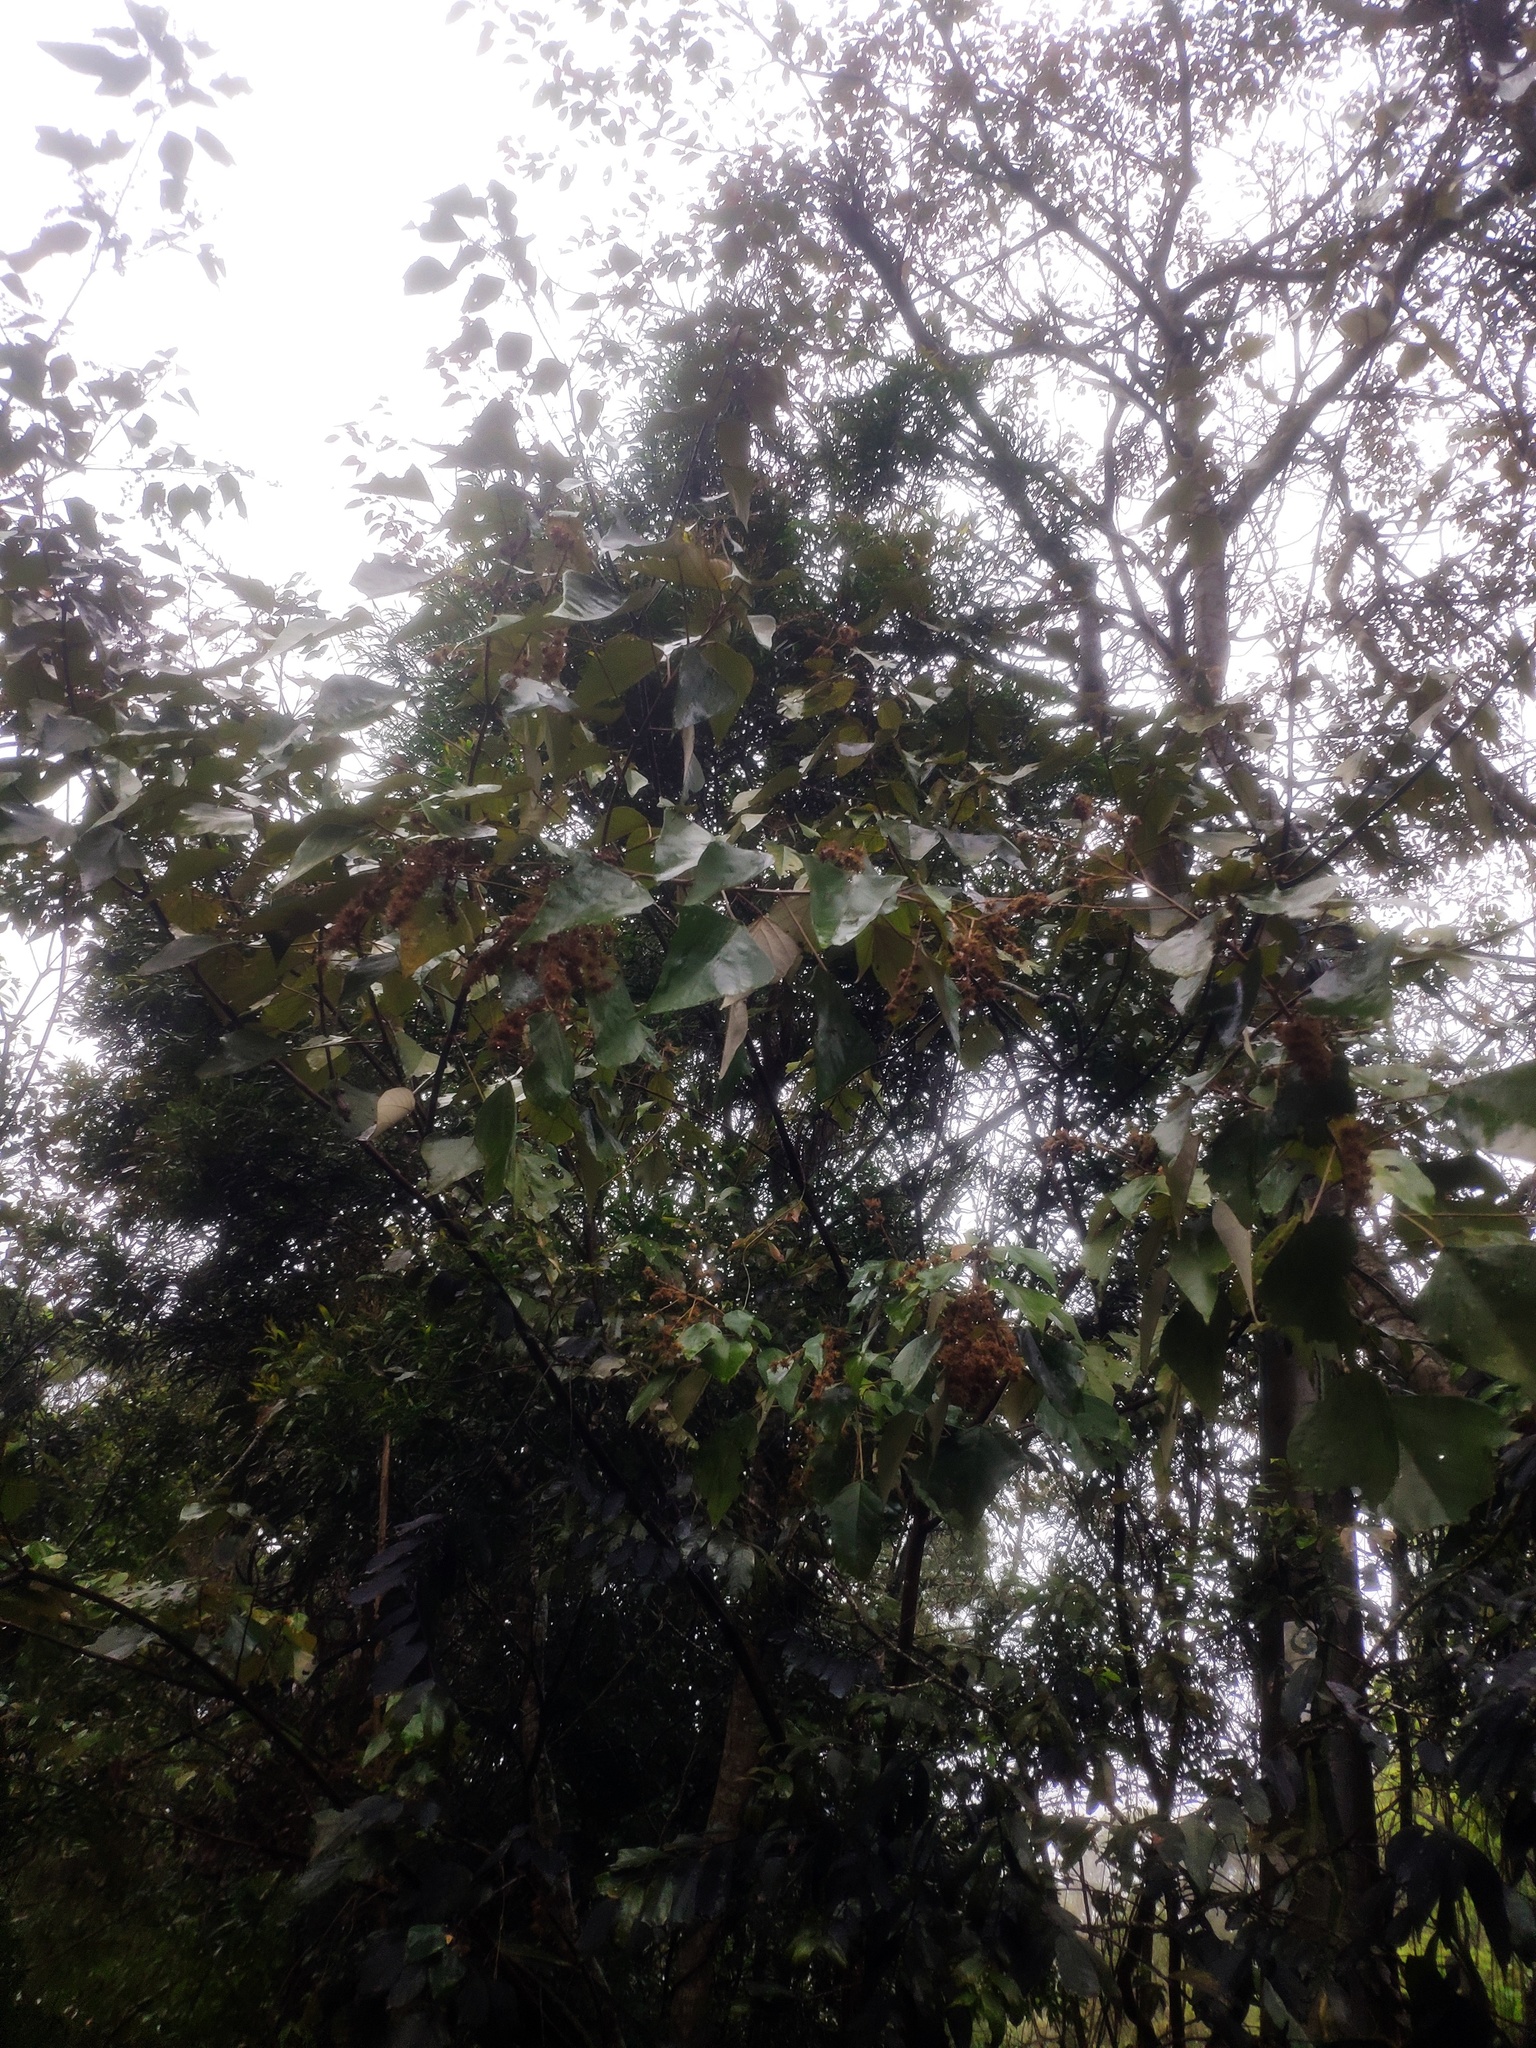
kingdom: Plantae
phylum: Tracheophyta
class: Magnoliopsida
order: Malpighiales
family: Euphorbiaceae
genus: Mallotus
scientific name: Mallotus paniculatus
